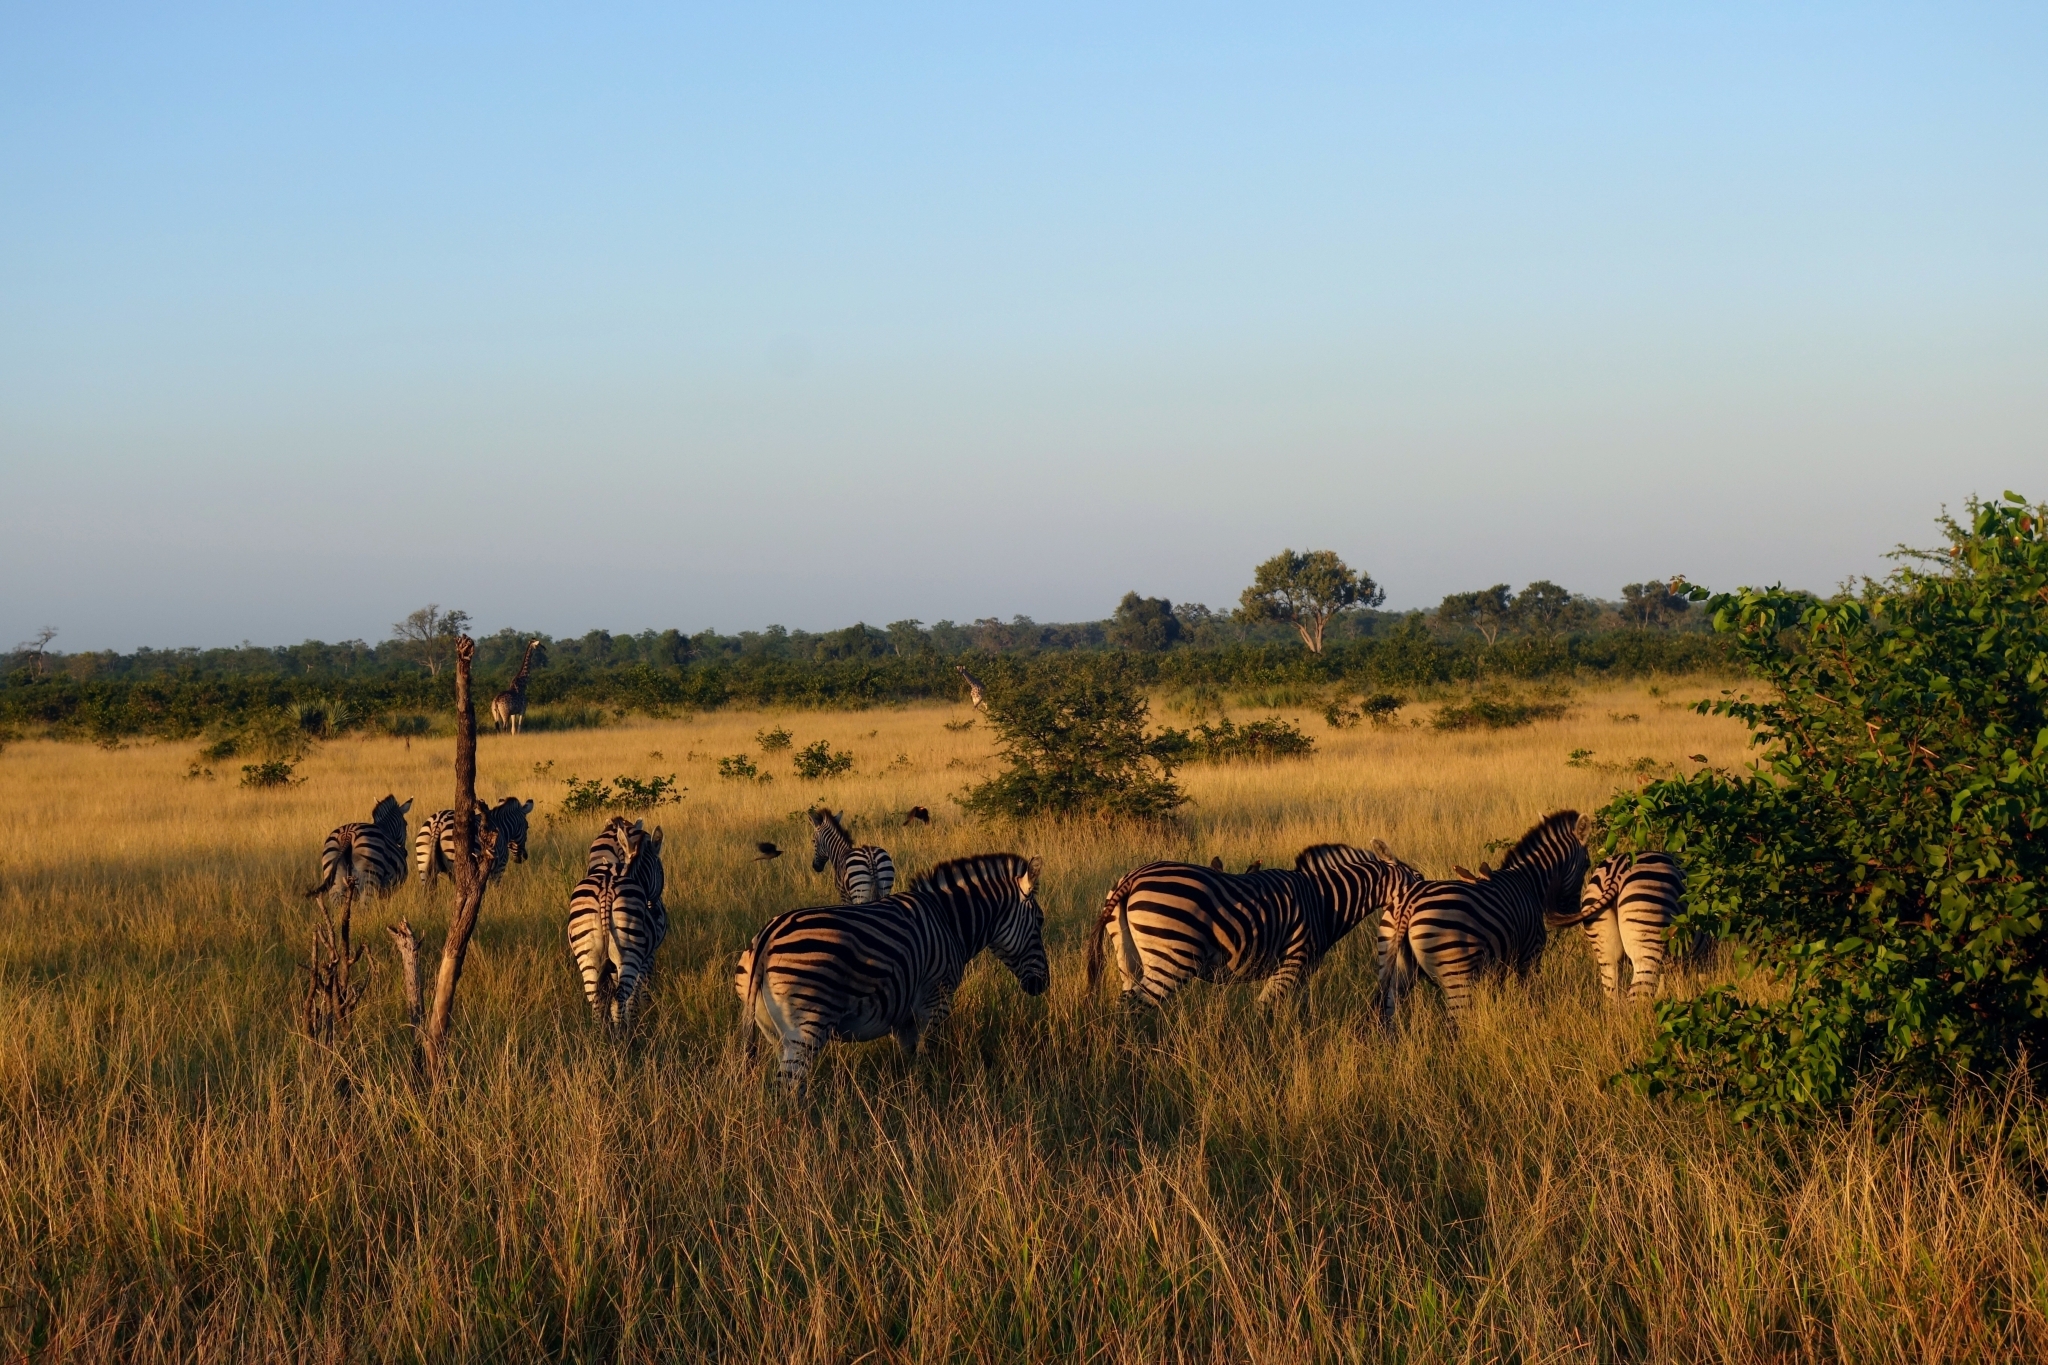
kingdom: Animalia
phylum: Chordata
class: Mammalia
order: Perissodactyla
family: Equidae
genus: Equus
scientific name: Equus quagga
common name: Plains zebra
